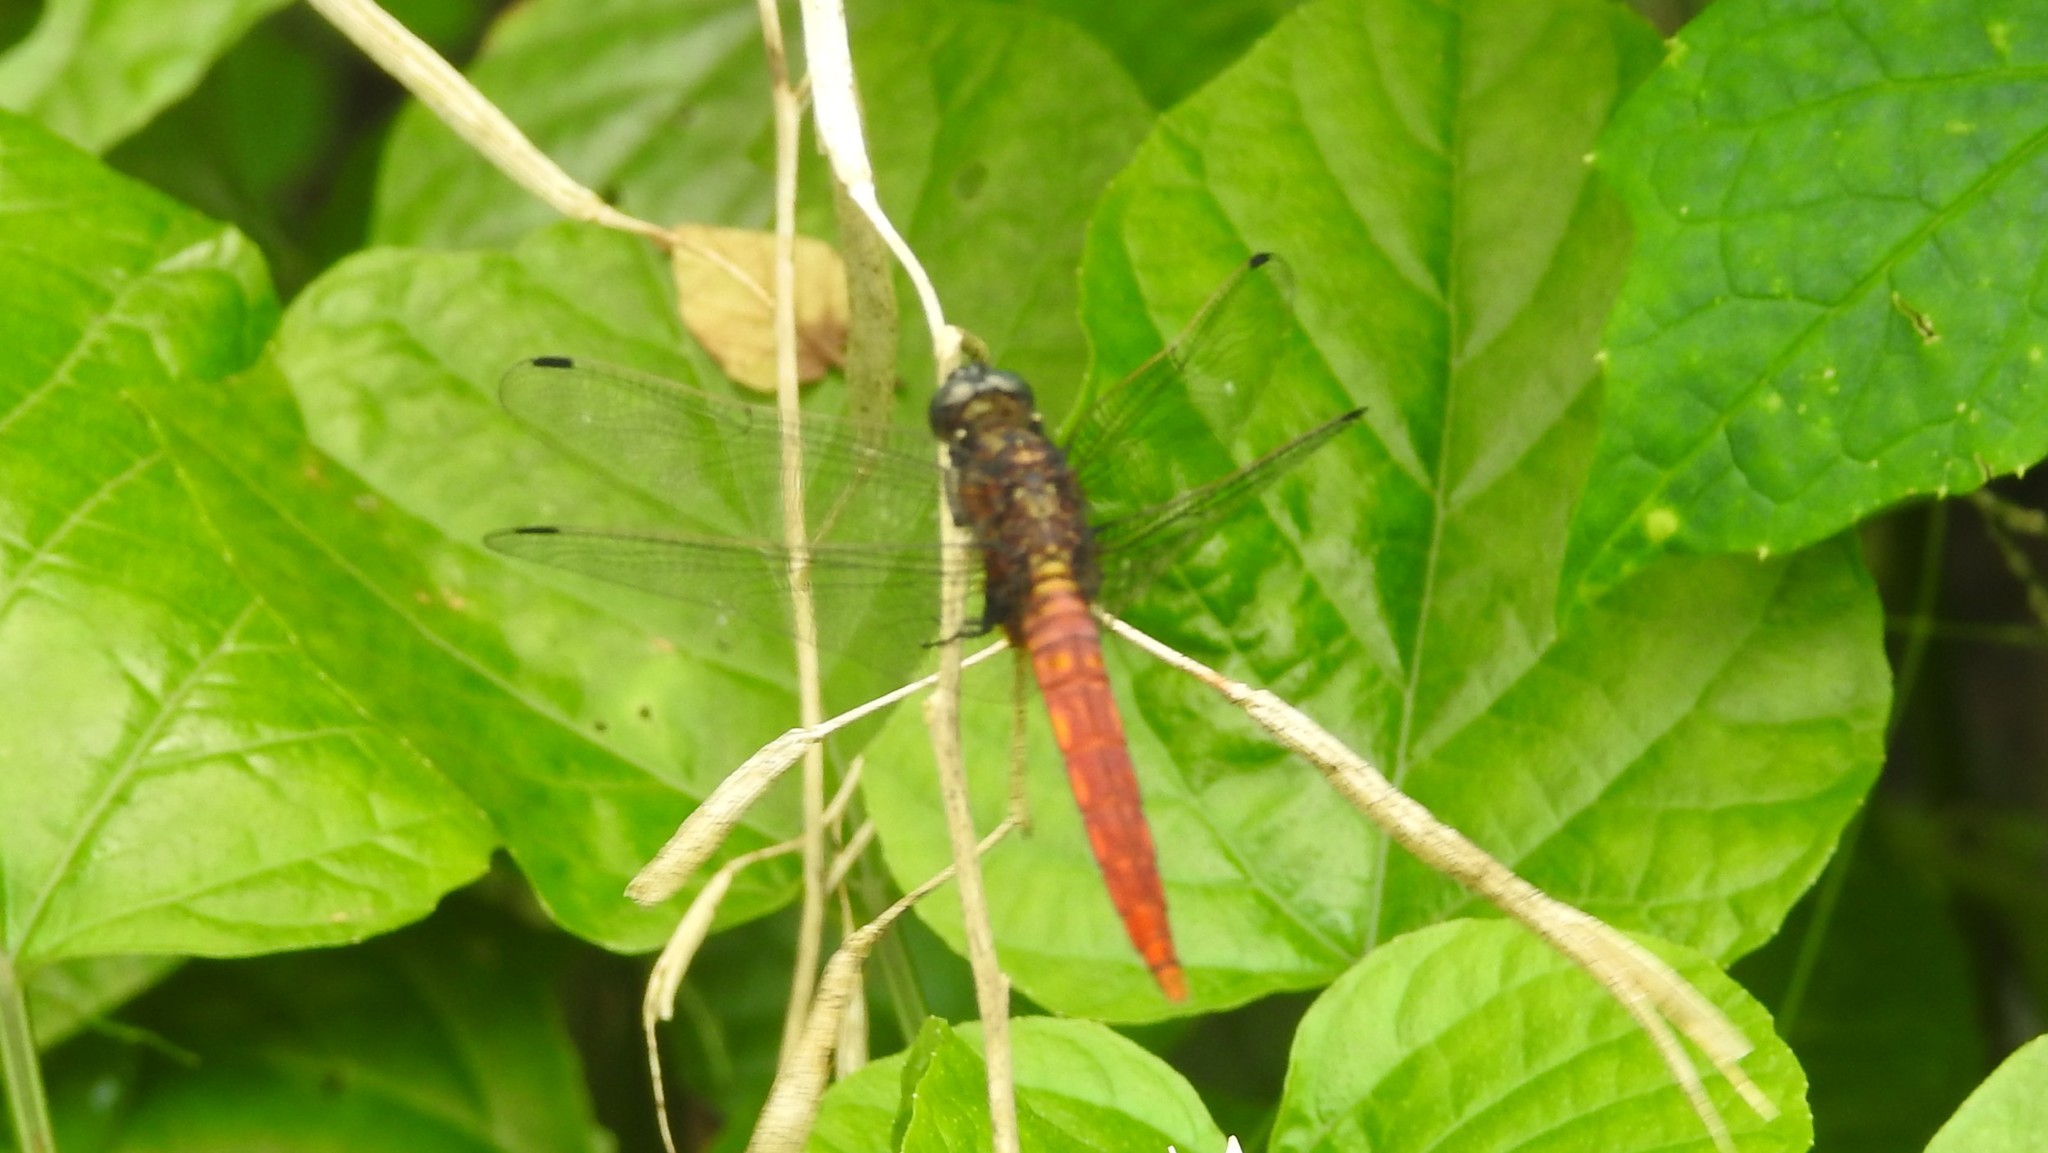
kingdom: Animalia
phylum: Arthropoda
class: Insecta
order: Odonata
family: Libellulidae
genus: Orthetrum
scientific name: Orthetrum chrysis
